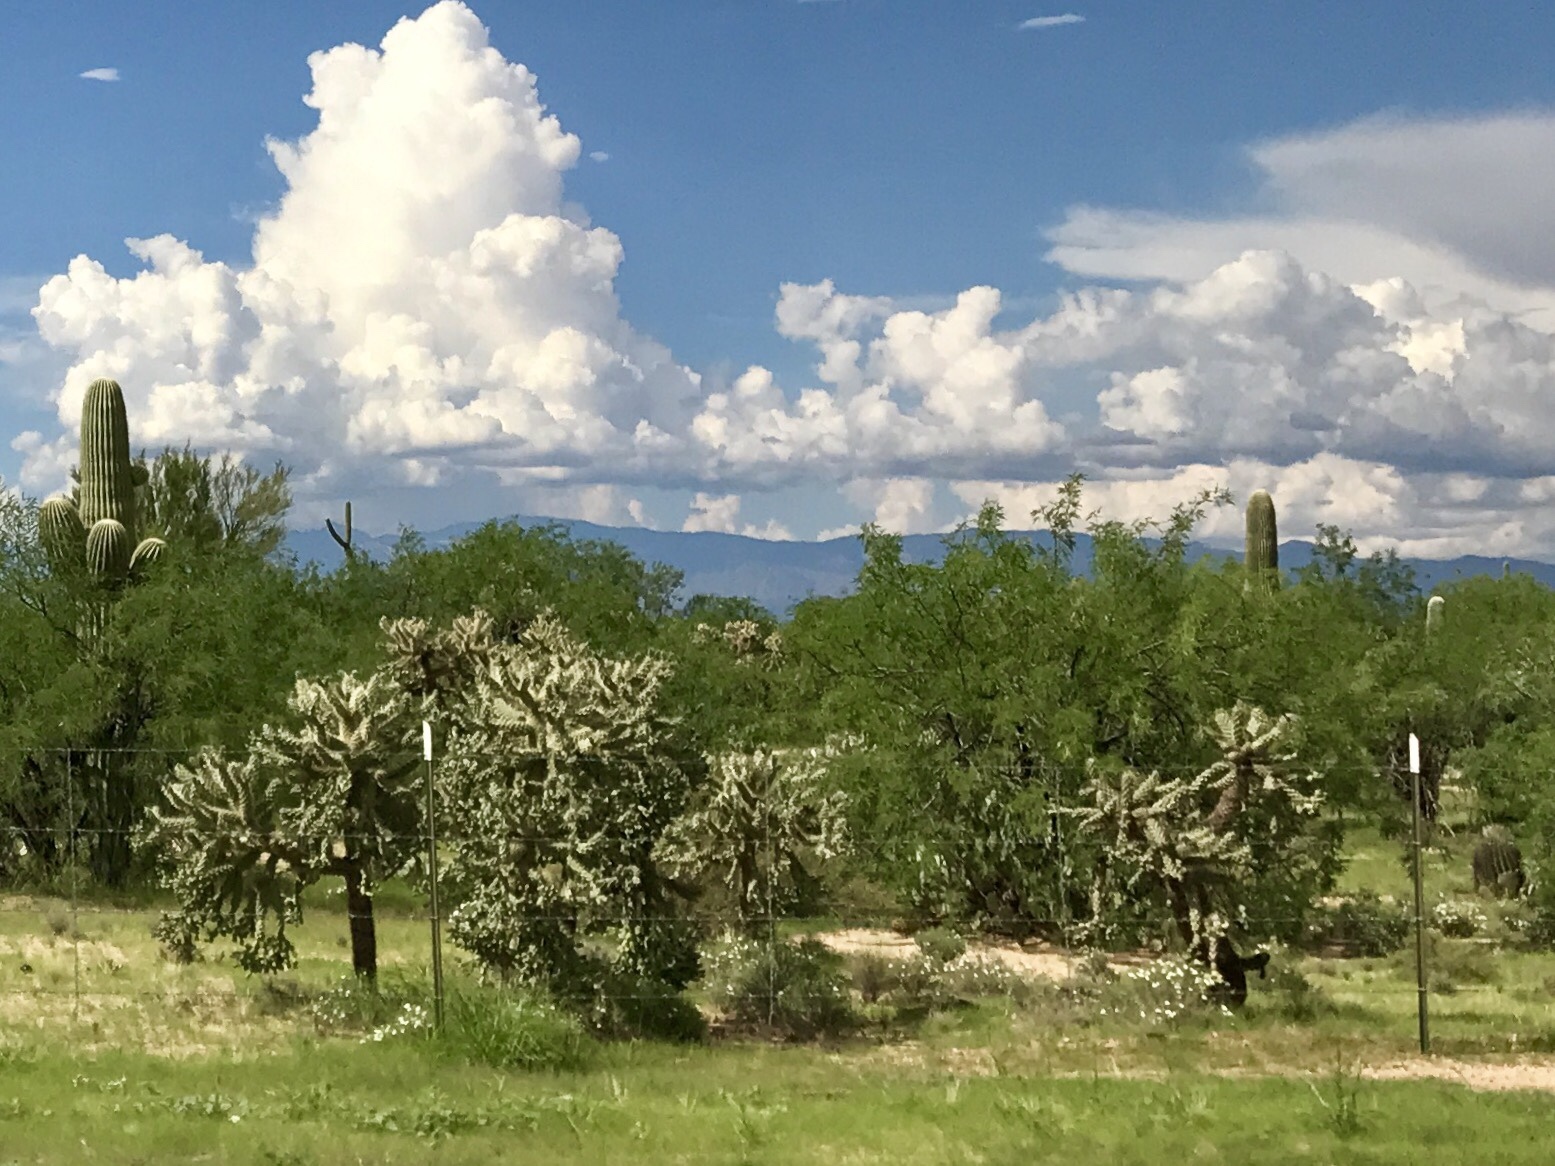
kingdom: Plantae
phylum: Tracheophyta
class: Magnoliopsida
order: Caryophyllales
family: Cactaceae
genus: Cylindropuntia
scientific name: Cylindropuntia fulgida
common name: Jumping cholla
